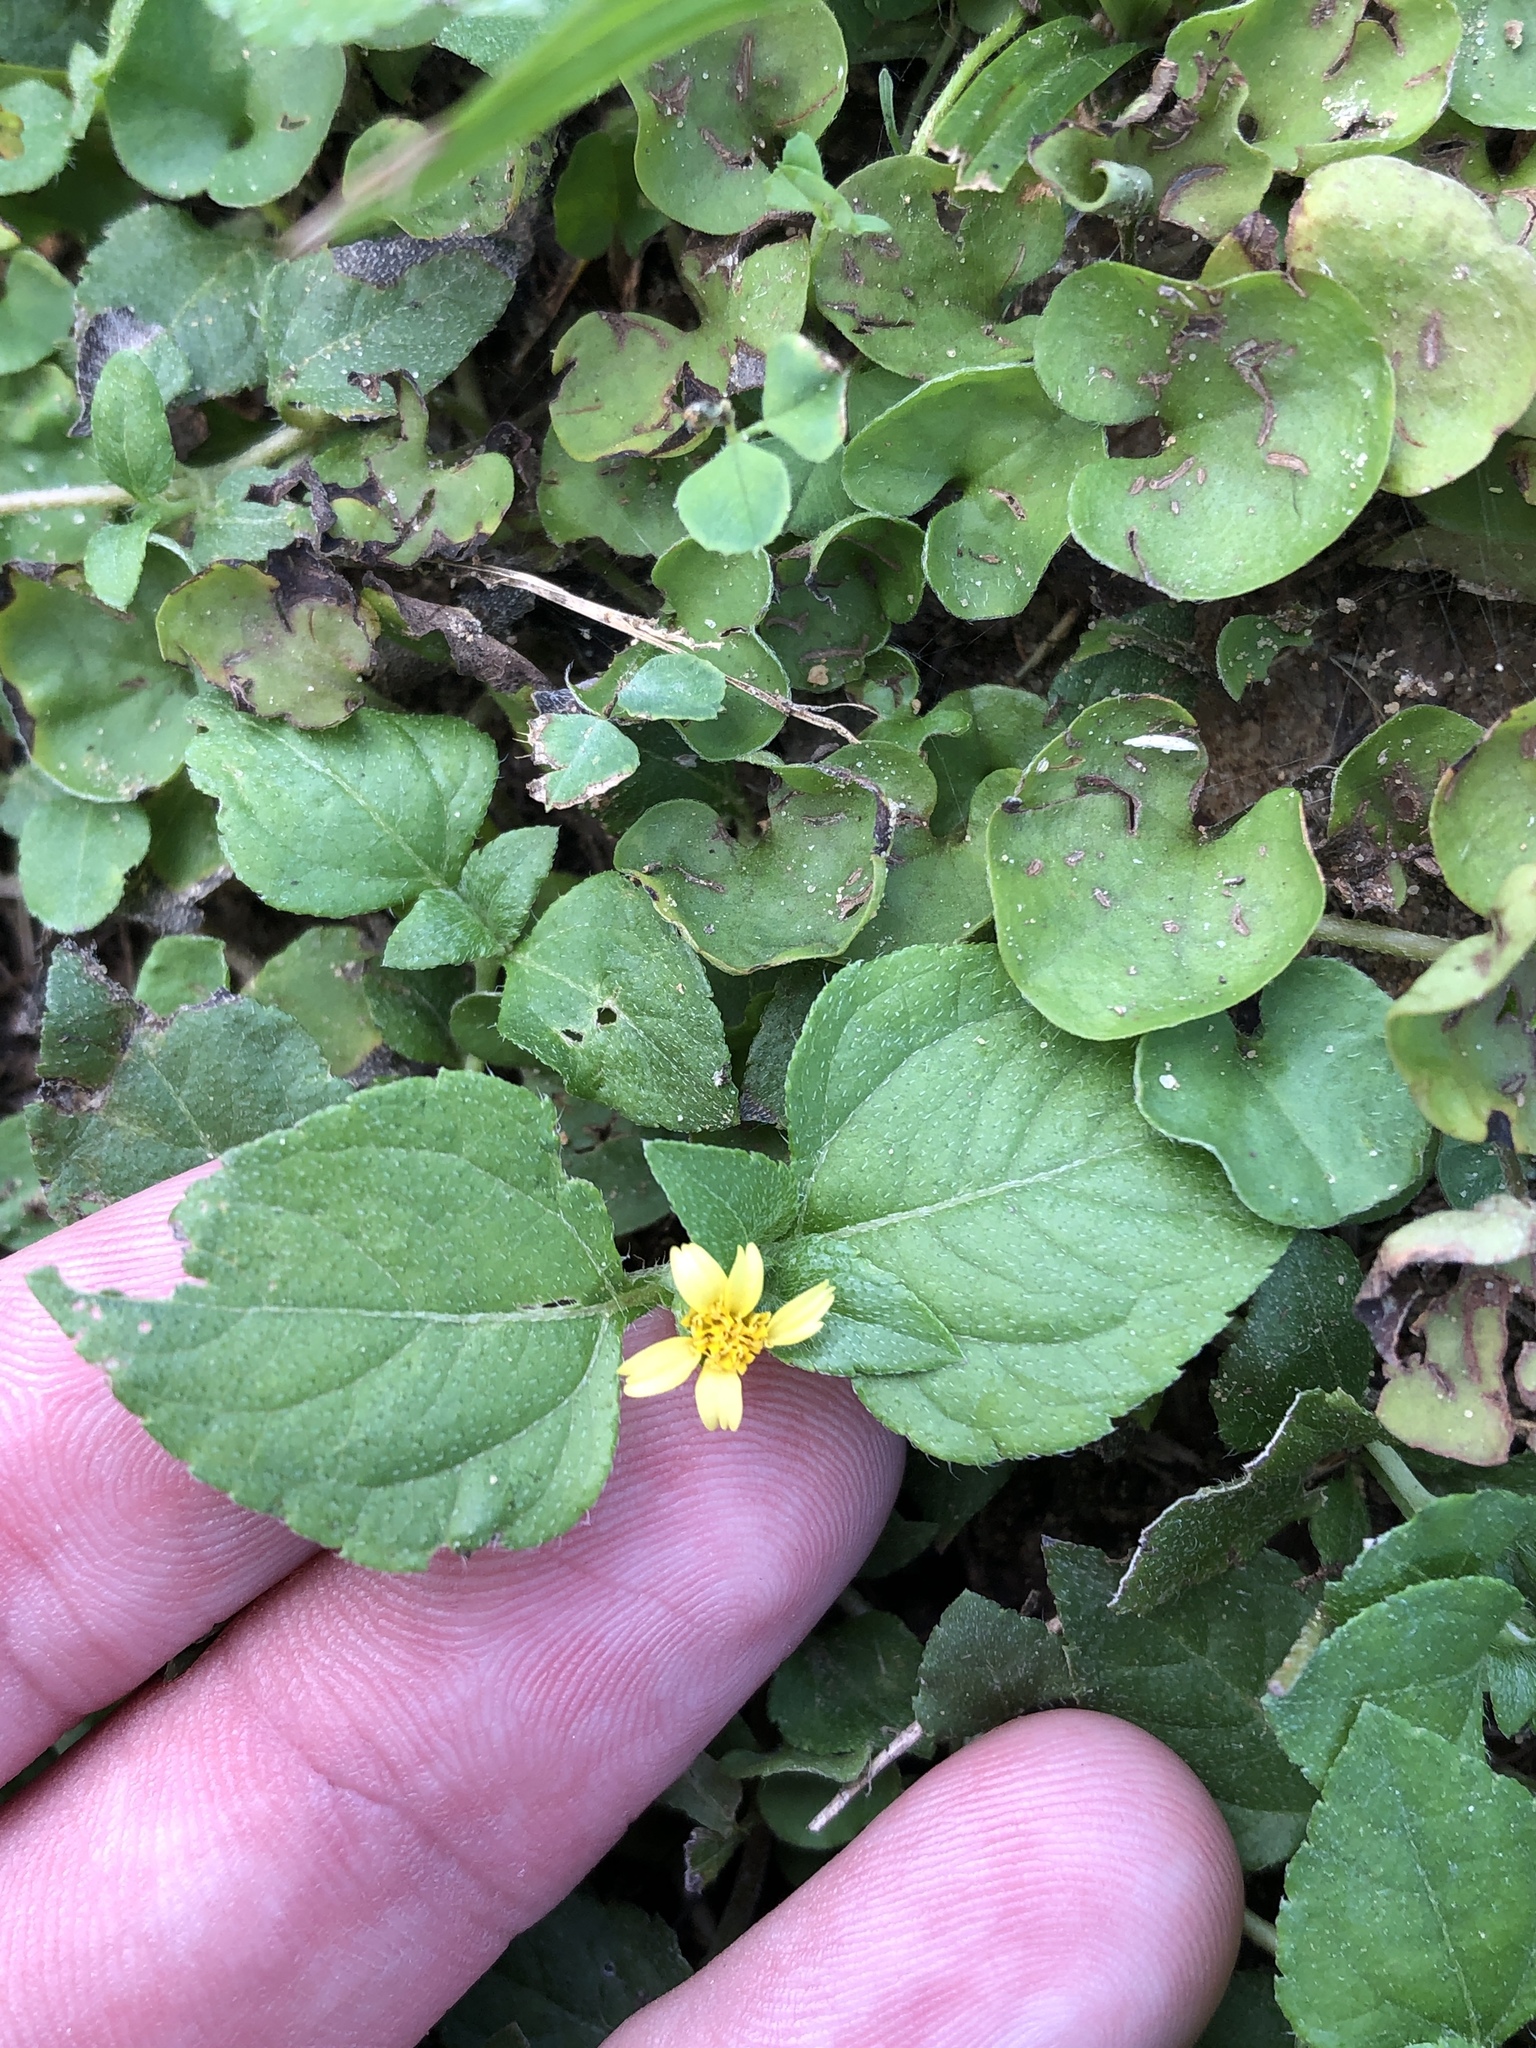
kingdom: Plantae
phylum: Tracheophyta
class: Magnoliopsida
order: Asterales
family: Asteraceae
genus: Calyptocarpus
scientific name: Calyptocarpus vialis
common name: Straggler daisy
